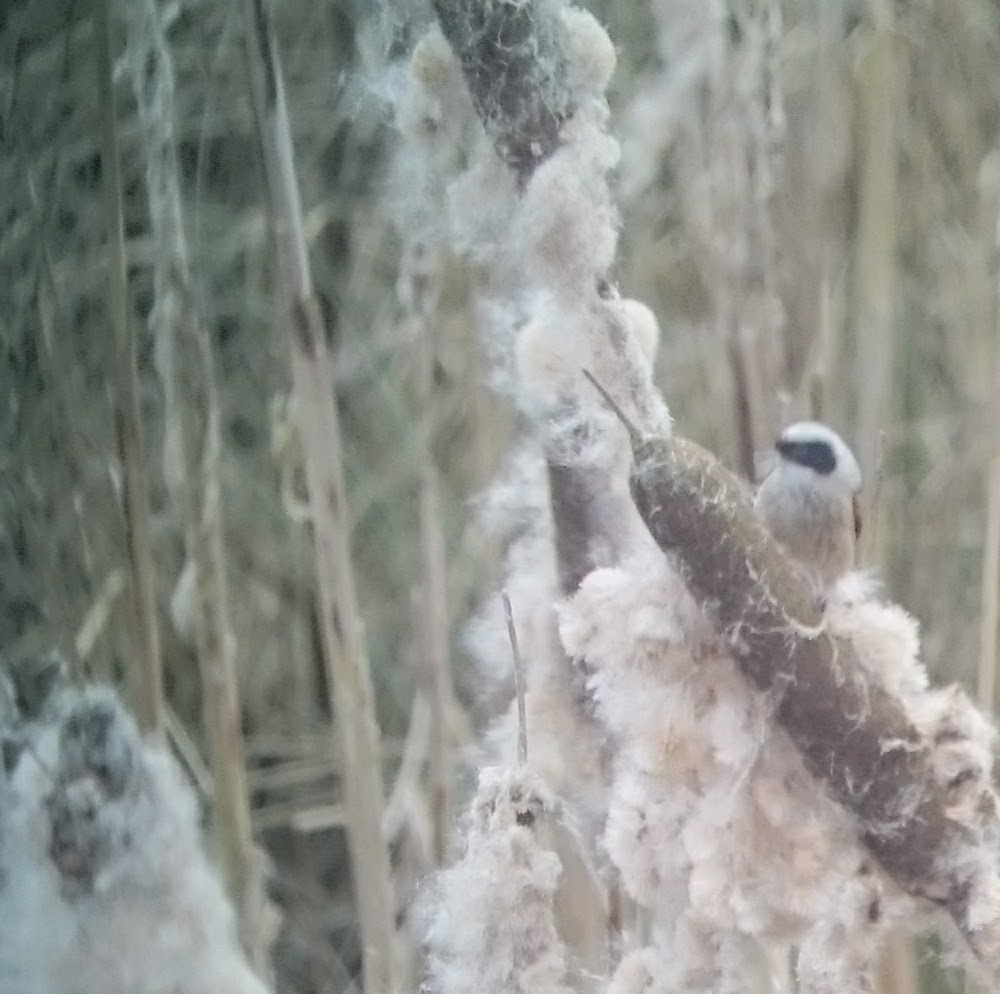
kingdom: Animalia
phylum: Chordata
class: Aves
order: Passeriformes
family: Remizidae
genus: Remiz
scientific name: Remiz pendulinus
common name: Eurasian penduline tit
